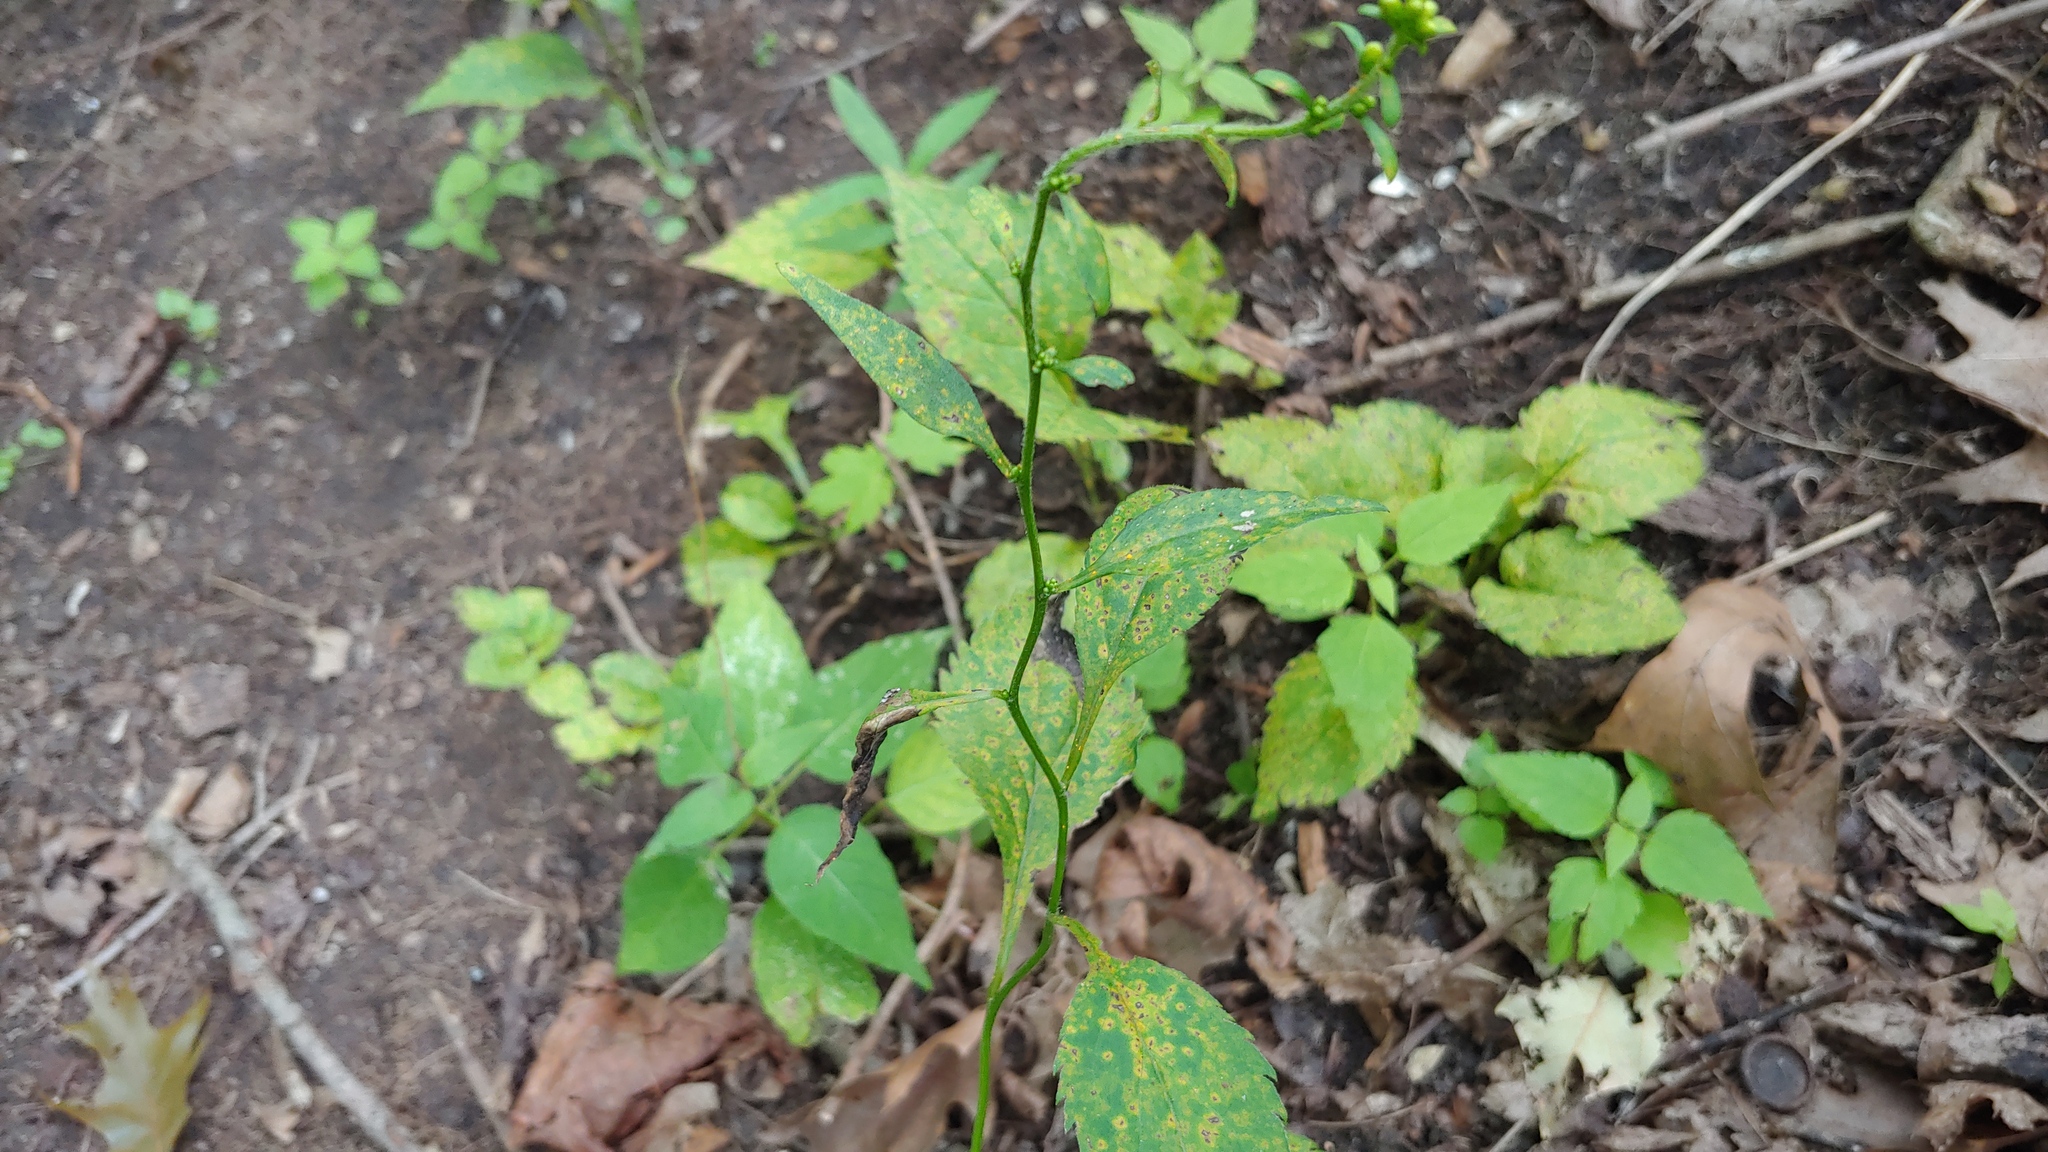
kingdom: Plantae
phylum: Tracheophyta
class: Magnoliopsida
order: Asterales
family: Asteraceae
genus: Solidago
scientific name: Solidago flexicaulis
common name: Zig-zag goldenrod
